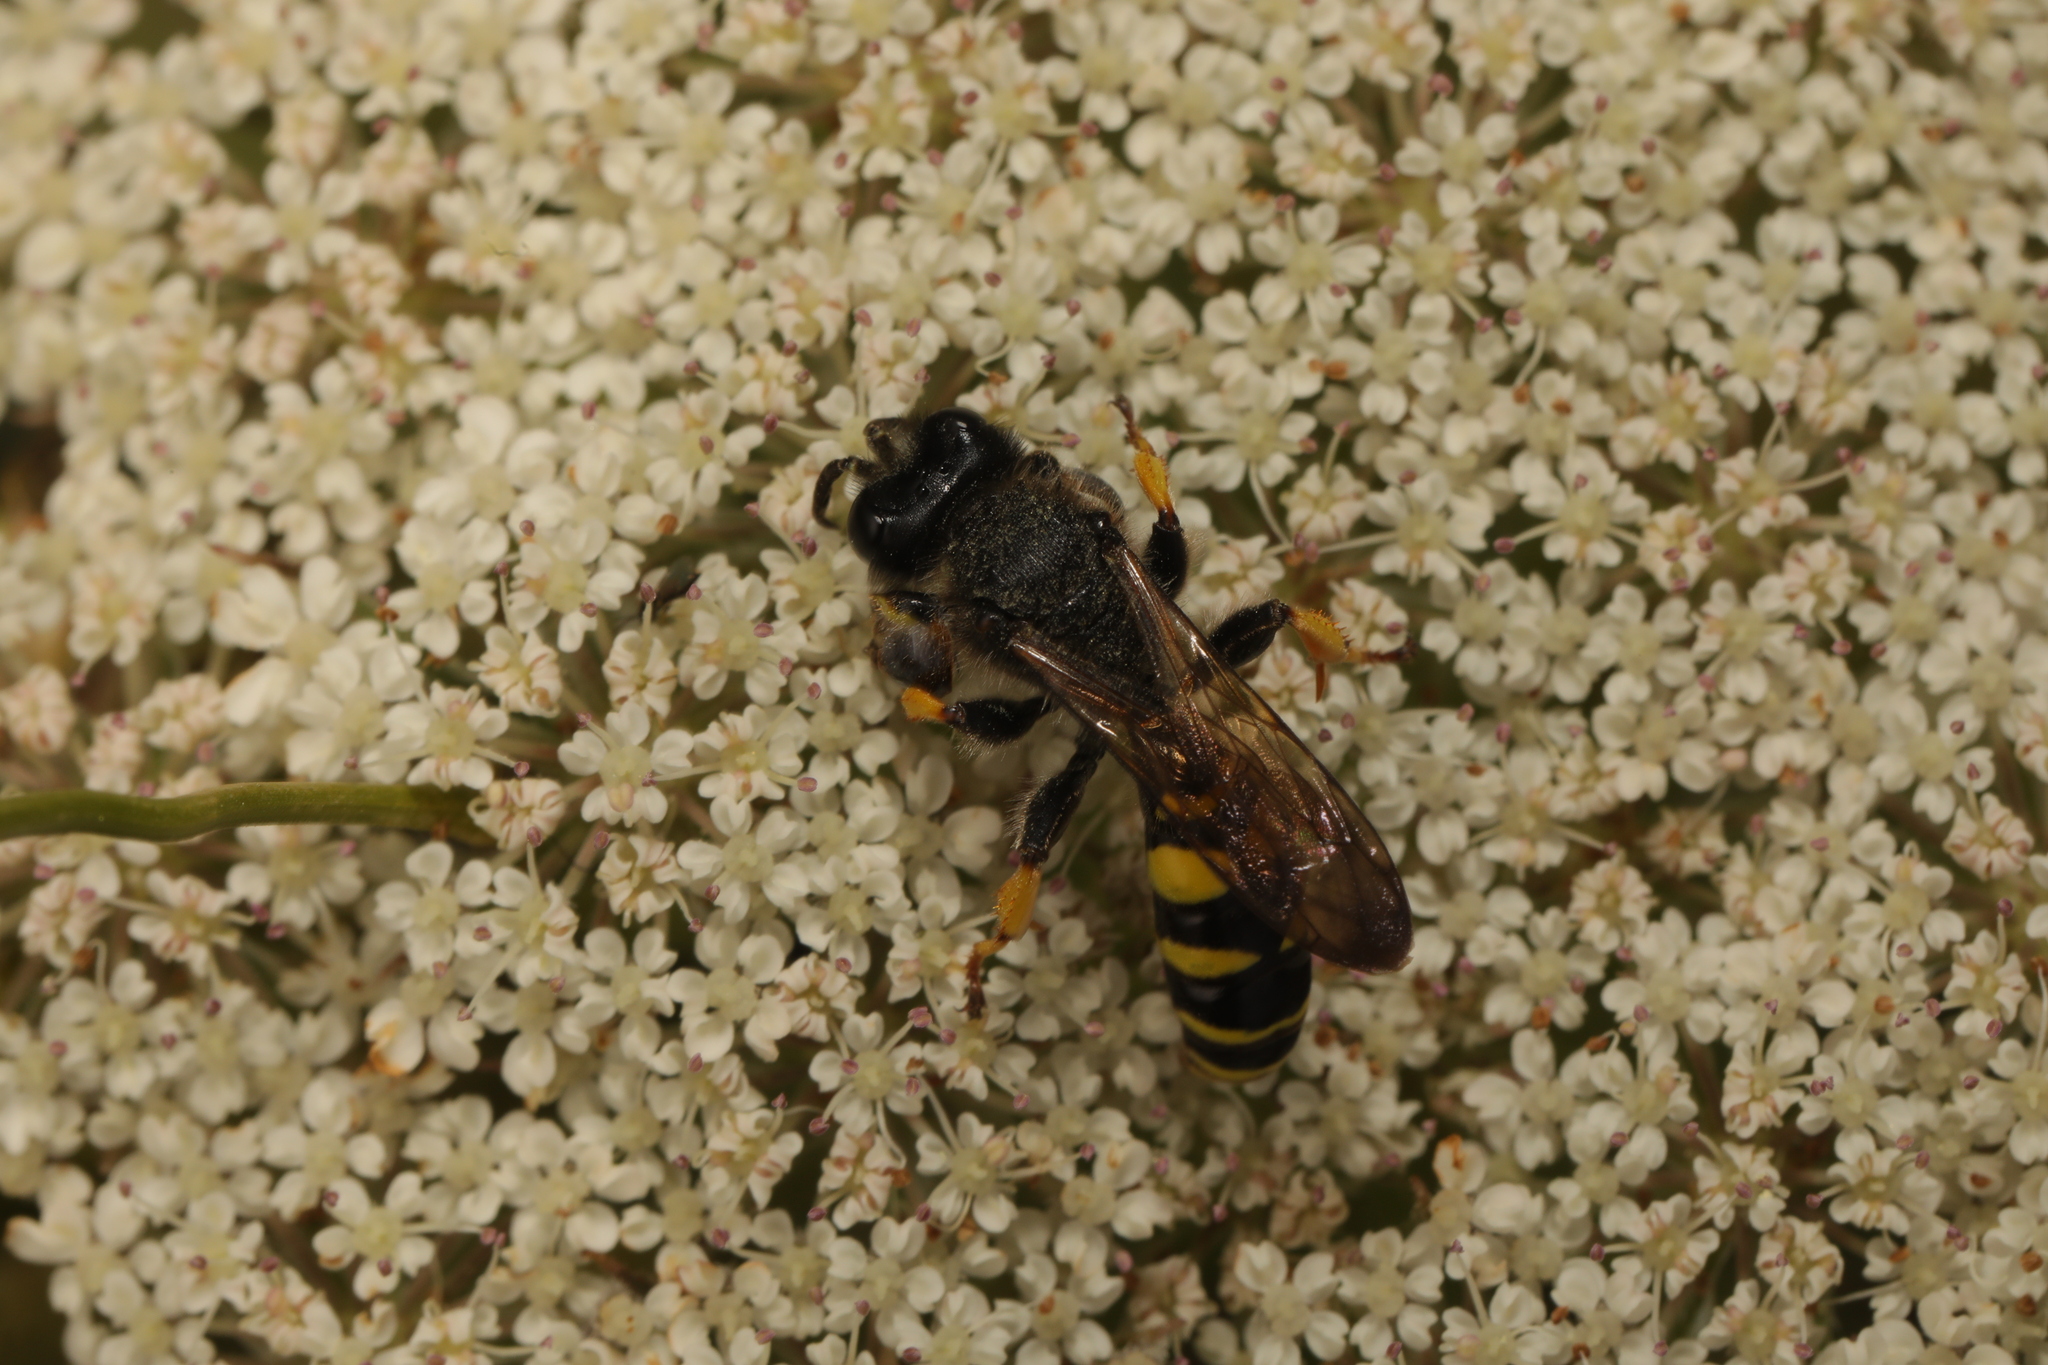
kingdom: Animalia
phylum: Arthropoda
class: Insecta
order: Hymenoptera
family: Crabronidae
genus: Crabro
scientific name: Crabro cribrarius
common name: Slender bodied digger wasp
